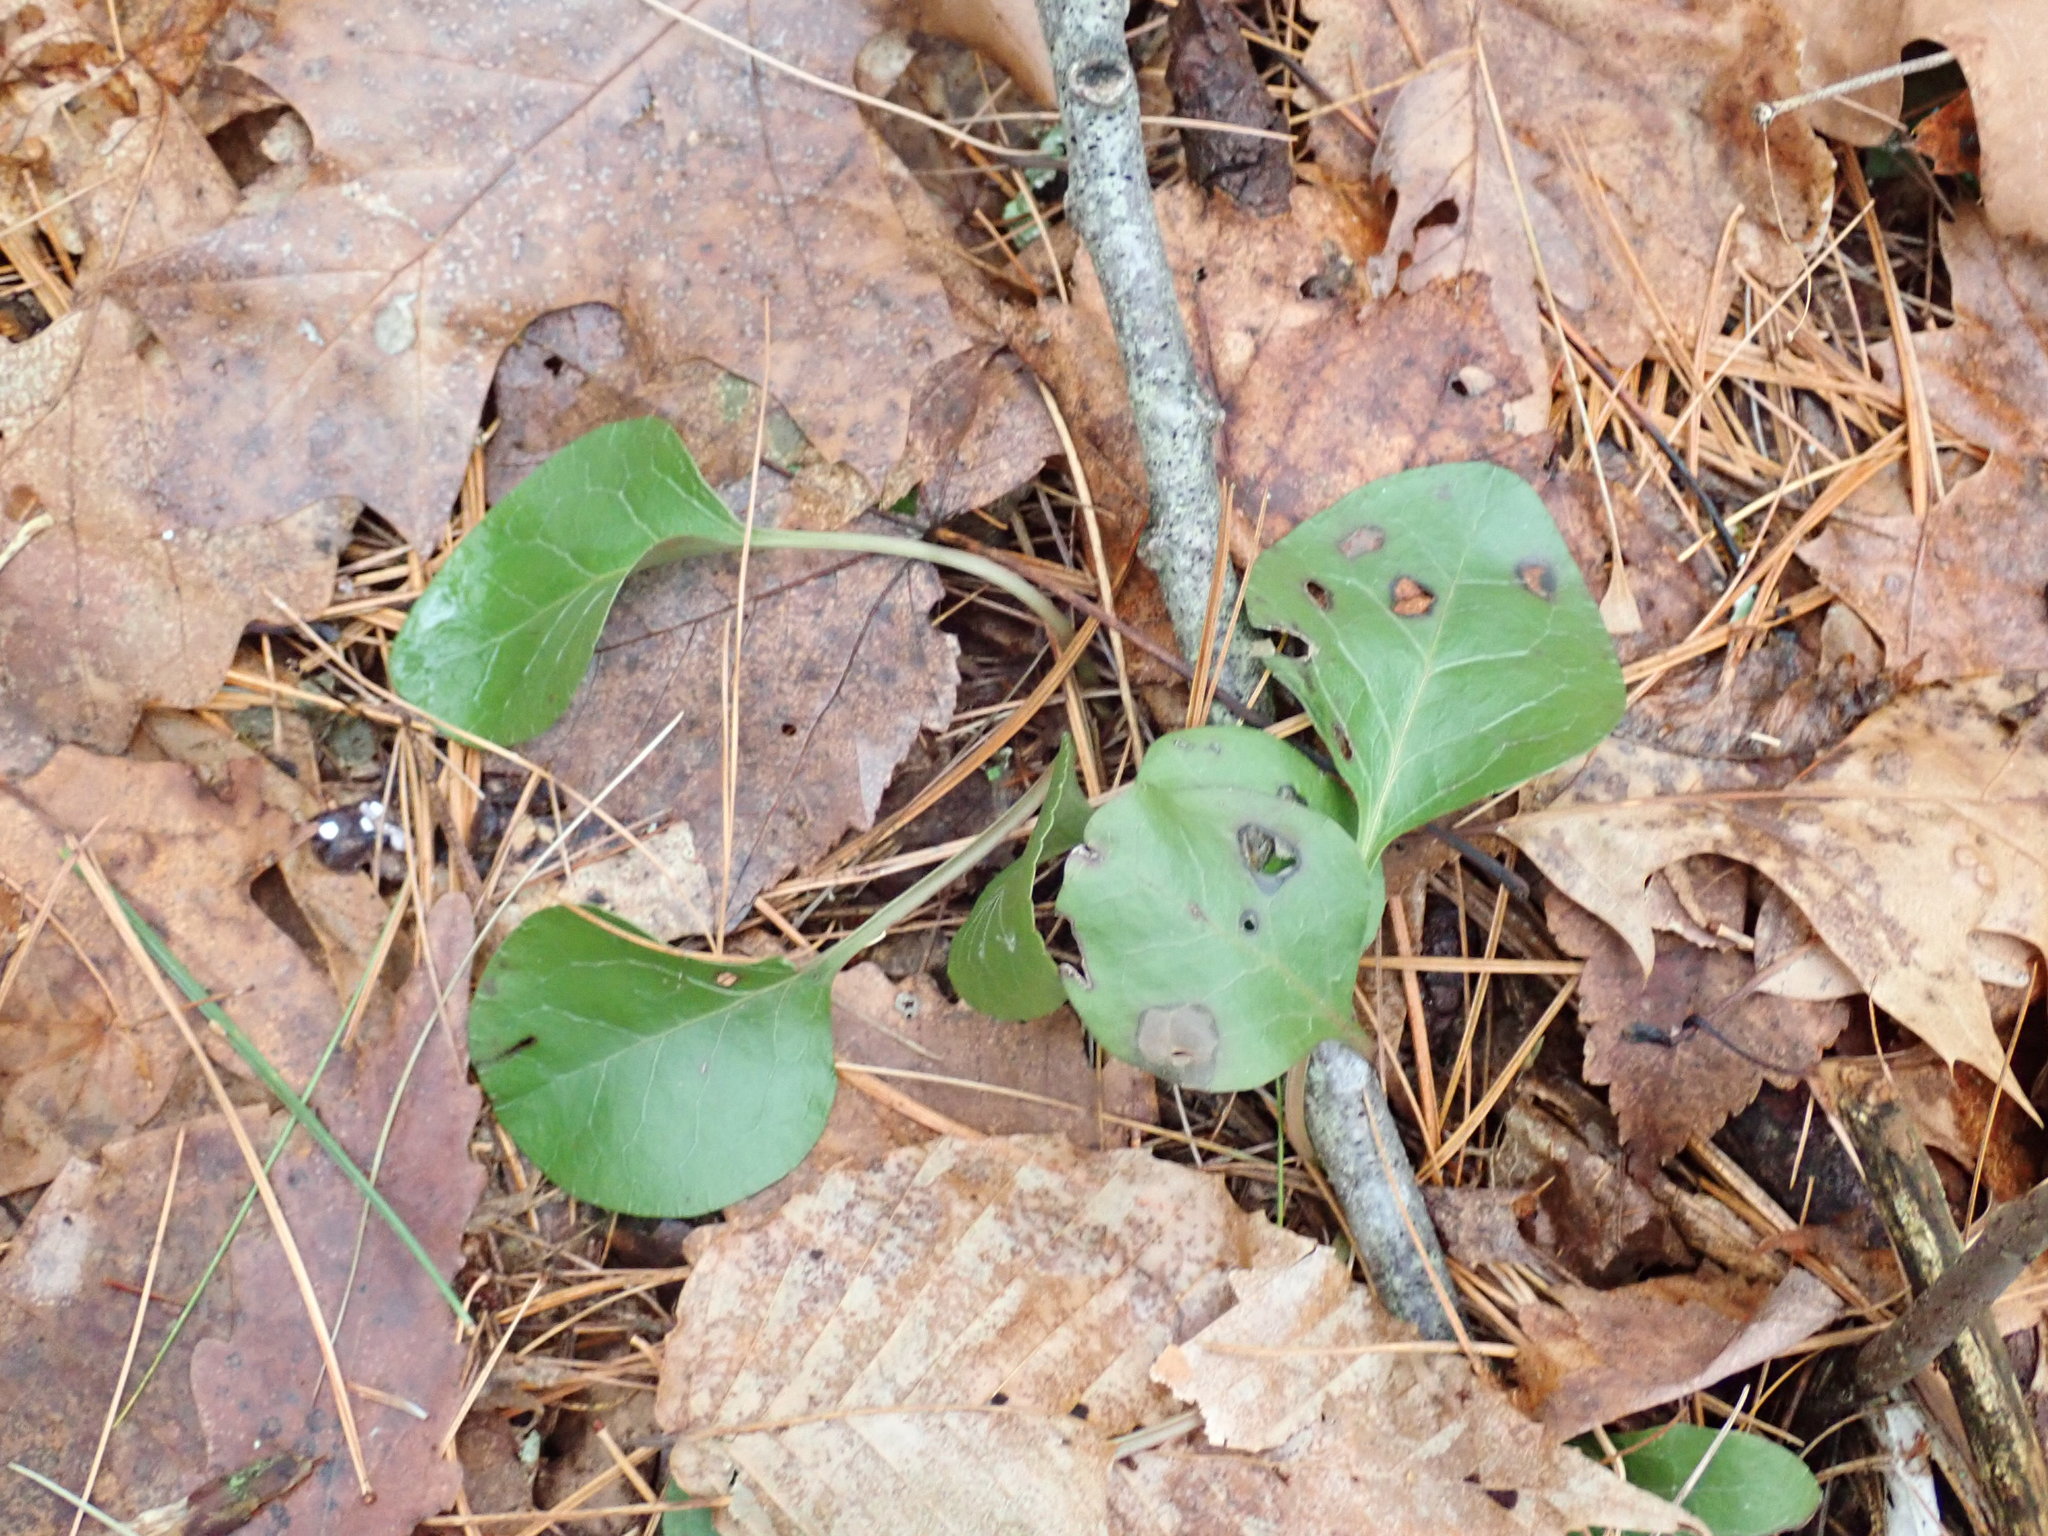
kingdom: Plantae
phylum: Tracheophyta
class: Magnoliopsida
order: Ericales
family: Ericaceae
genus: Pyrola
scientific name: Pyrola americana
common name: American wintergreen
